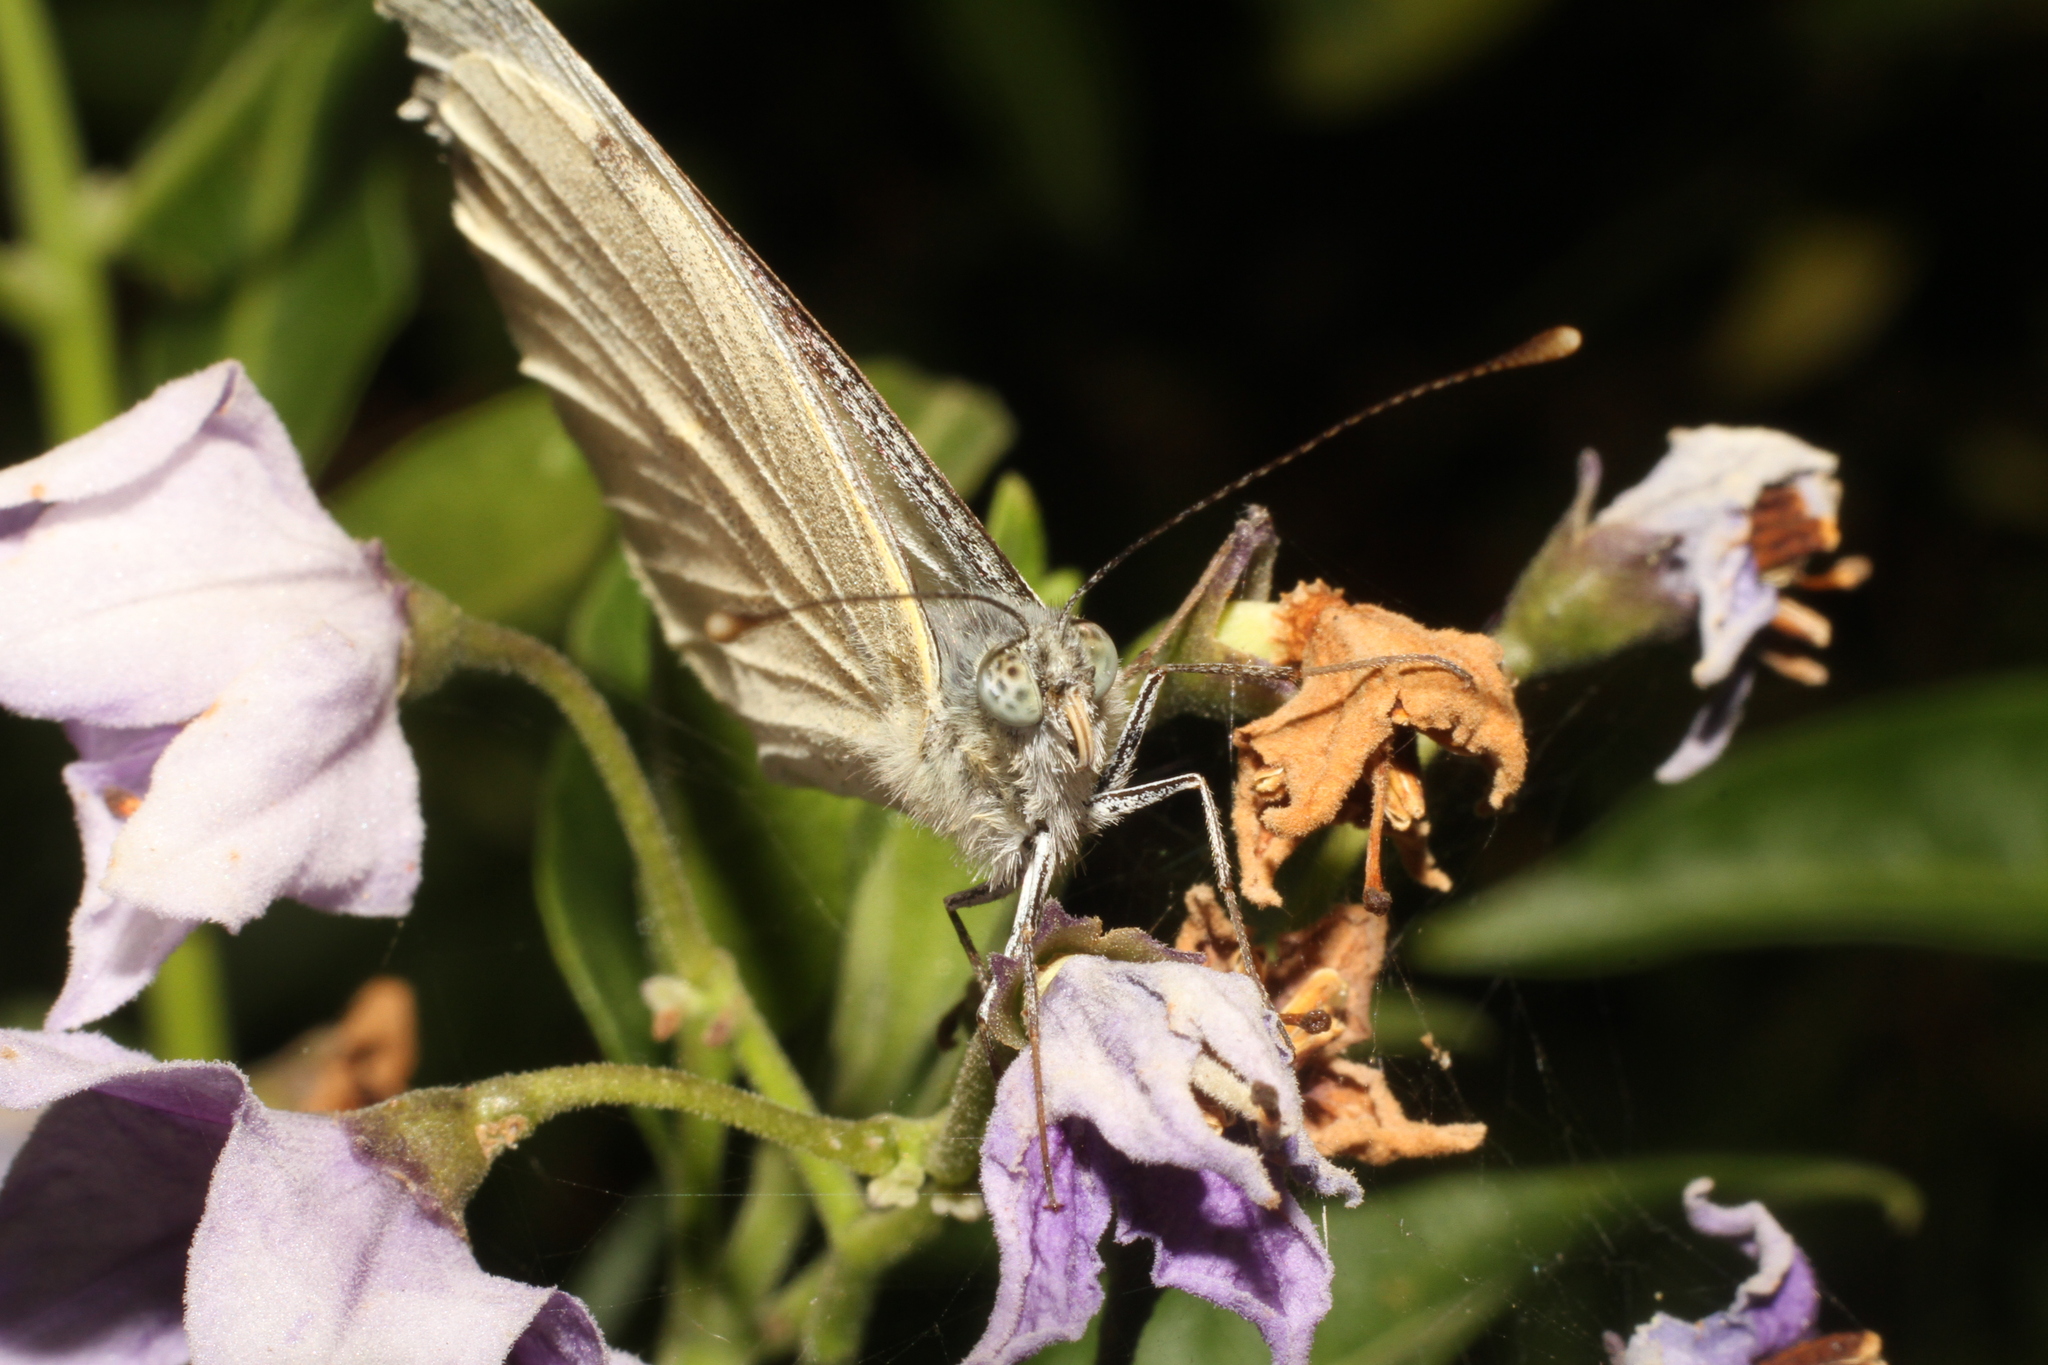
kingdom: Animalia
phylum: Arthropoda
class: Insecta
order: Lepidoptera
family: Pieridae
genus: Pieris
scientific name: Pieris brassicae
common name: Large white
